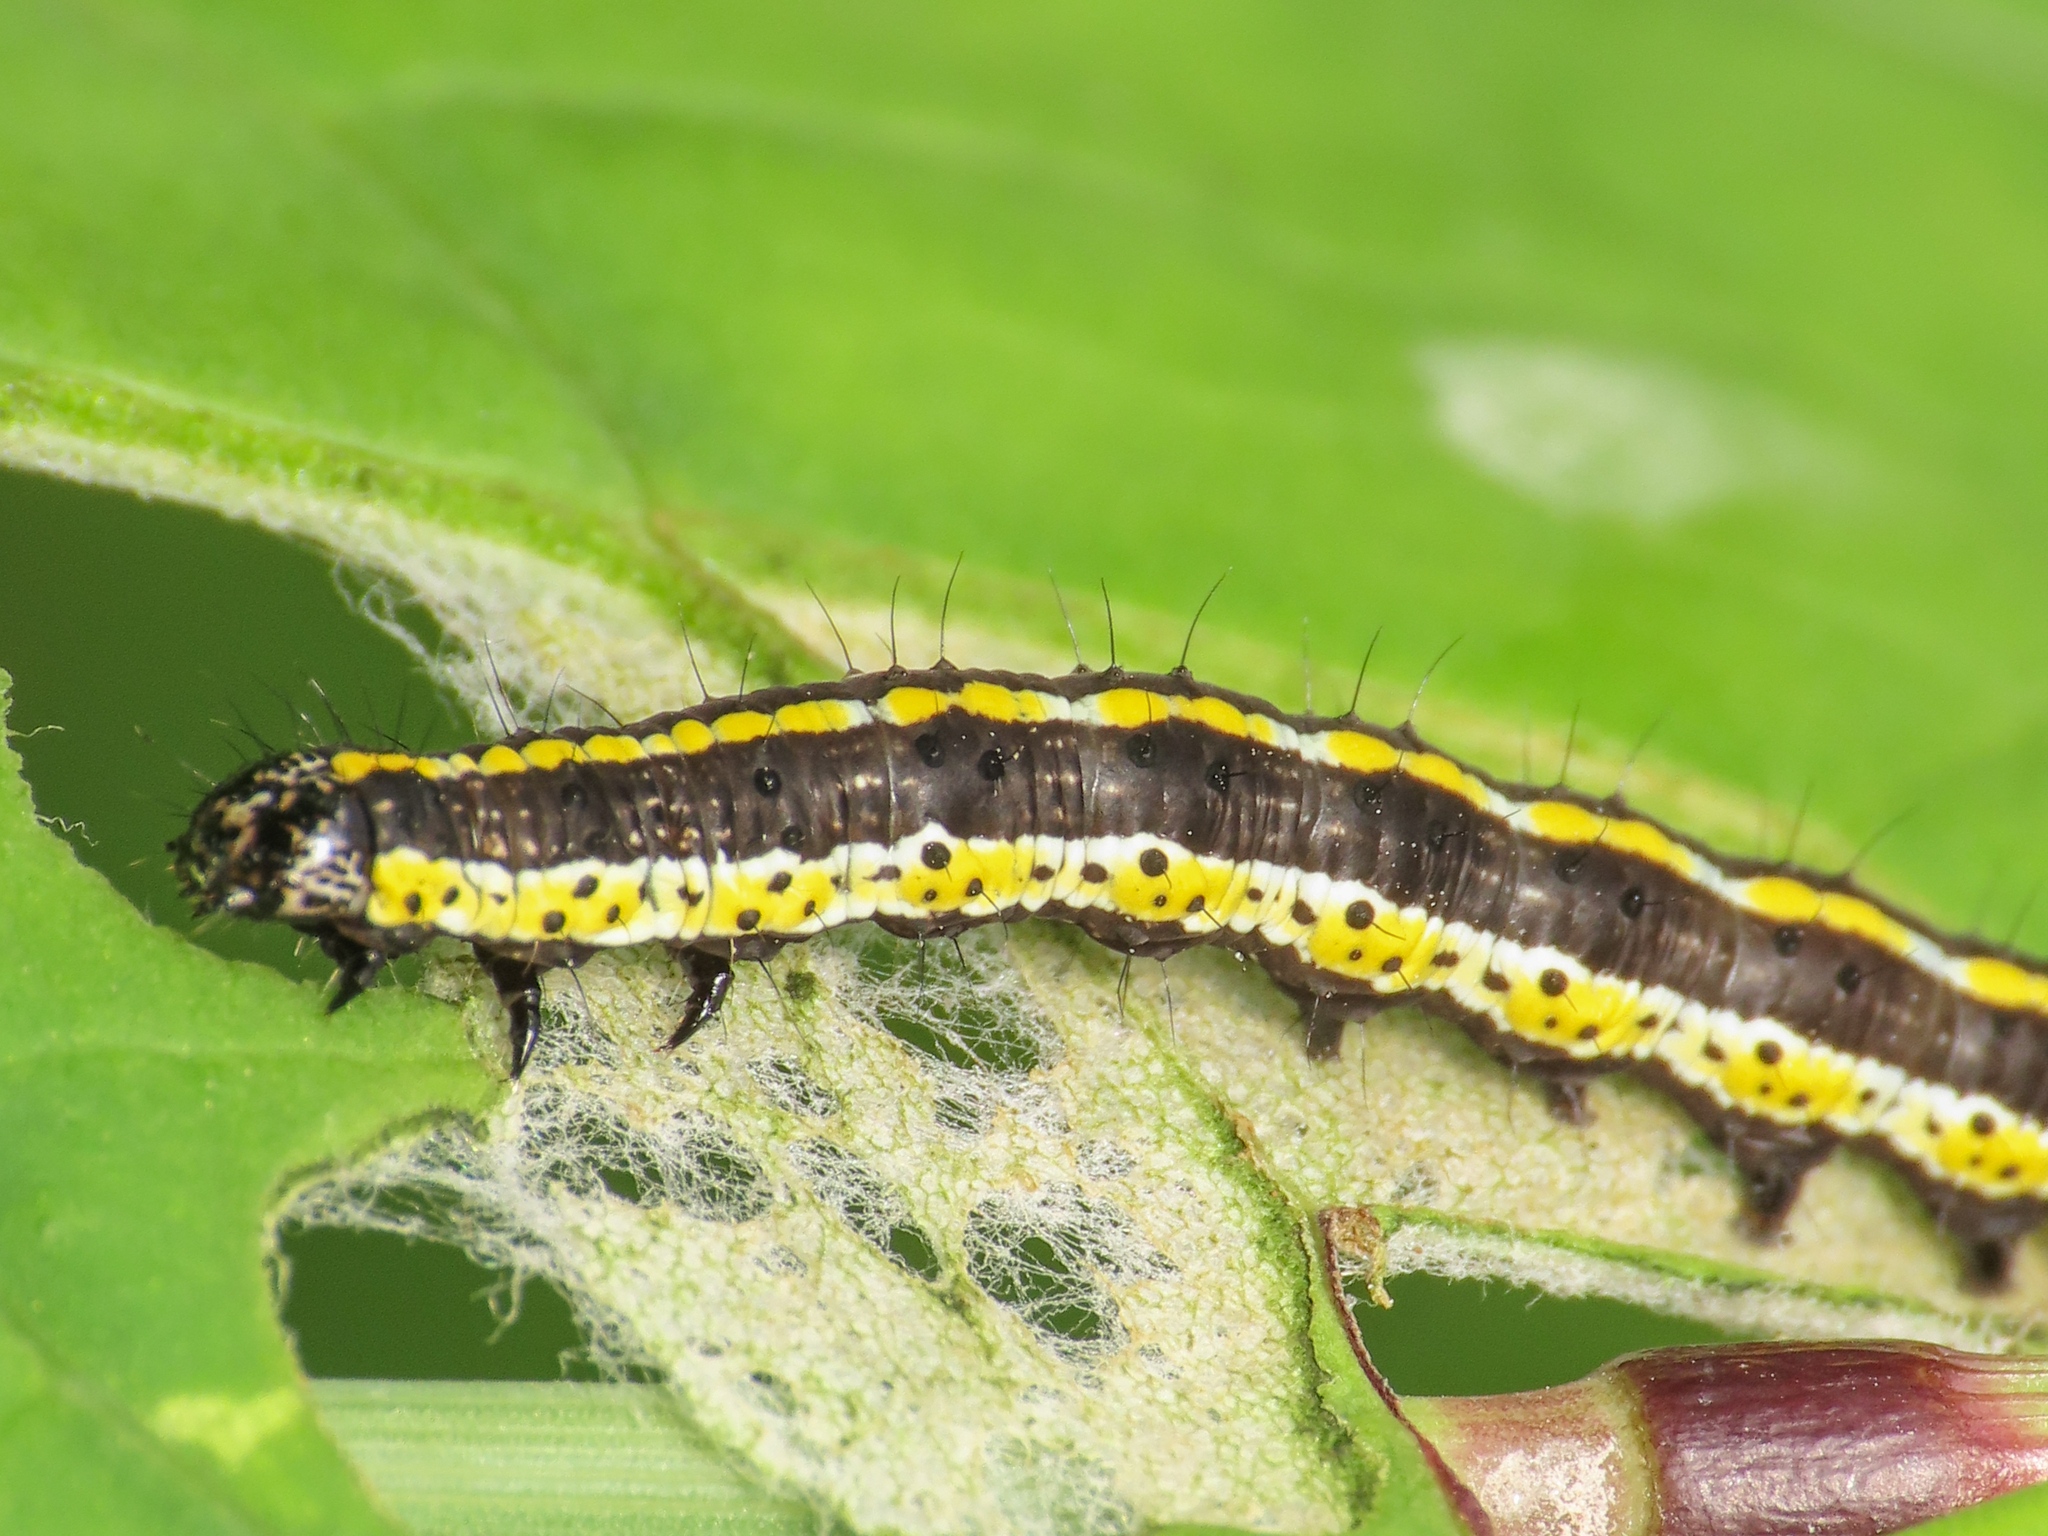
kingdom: Animalia
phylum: Arthropoda
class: Insecta
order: Lepidoptera
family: Noctuidae
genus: Cucullia
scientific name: Cucullia lucifuga
